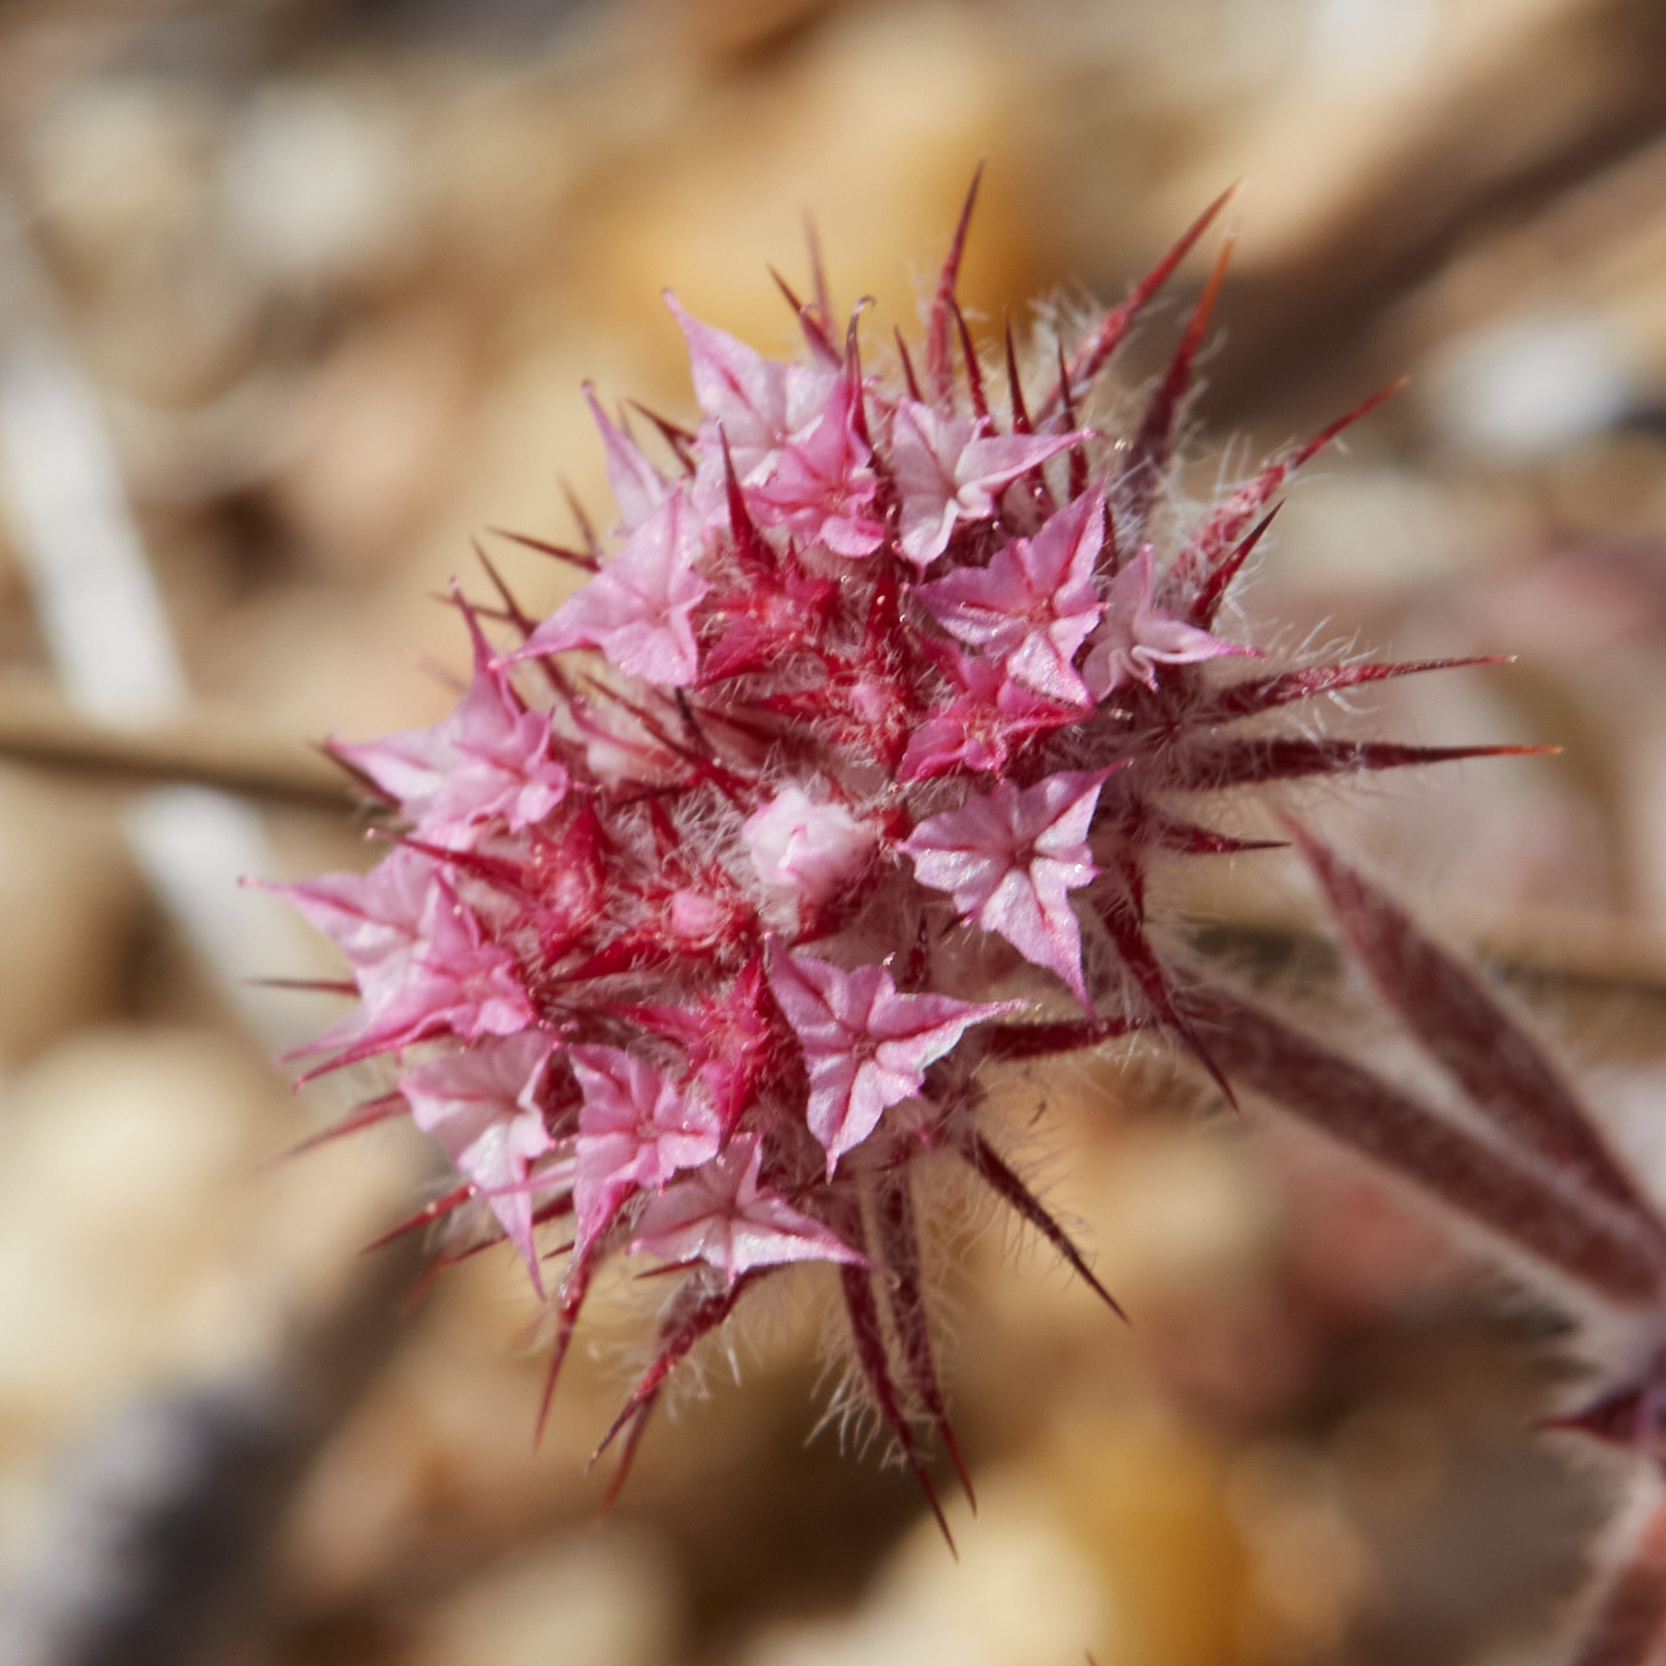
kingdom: Plantae
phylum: Tracheophyta
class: Magnoliopsida
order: Caryophyllales
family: Polygonaceae
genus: Chorizanthe
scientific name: Chorizanthe douglasii
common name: Douglas's spineflower
